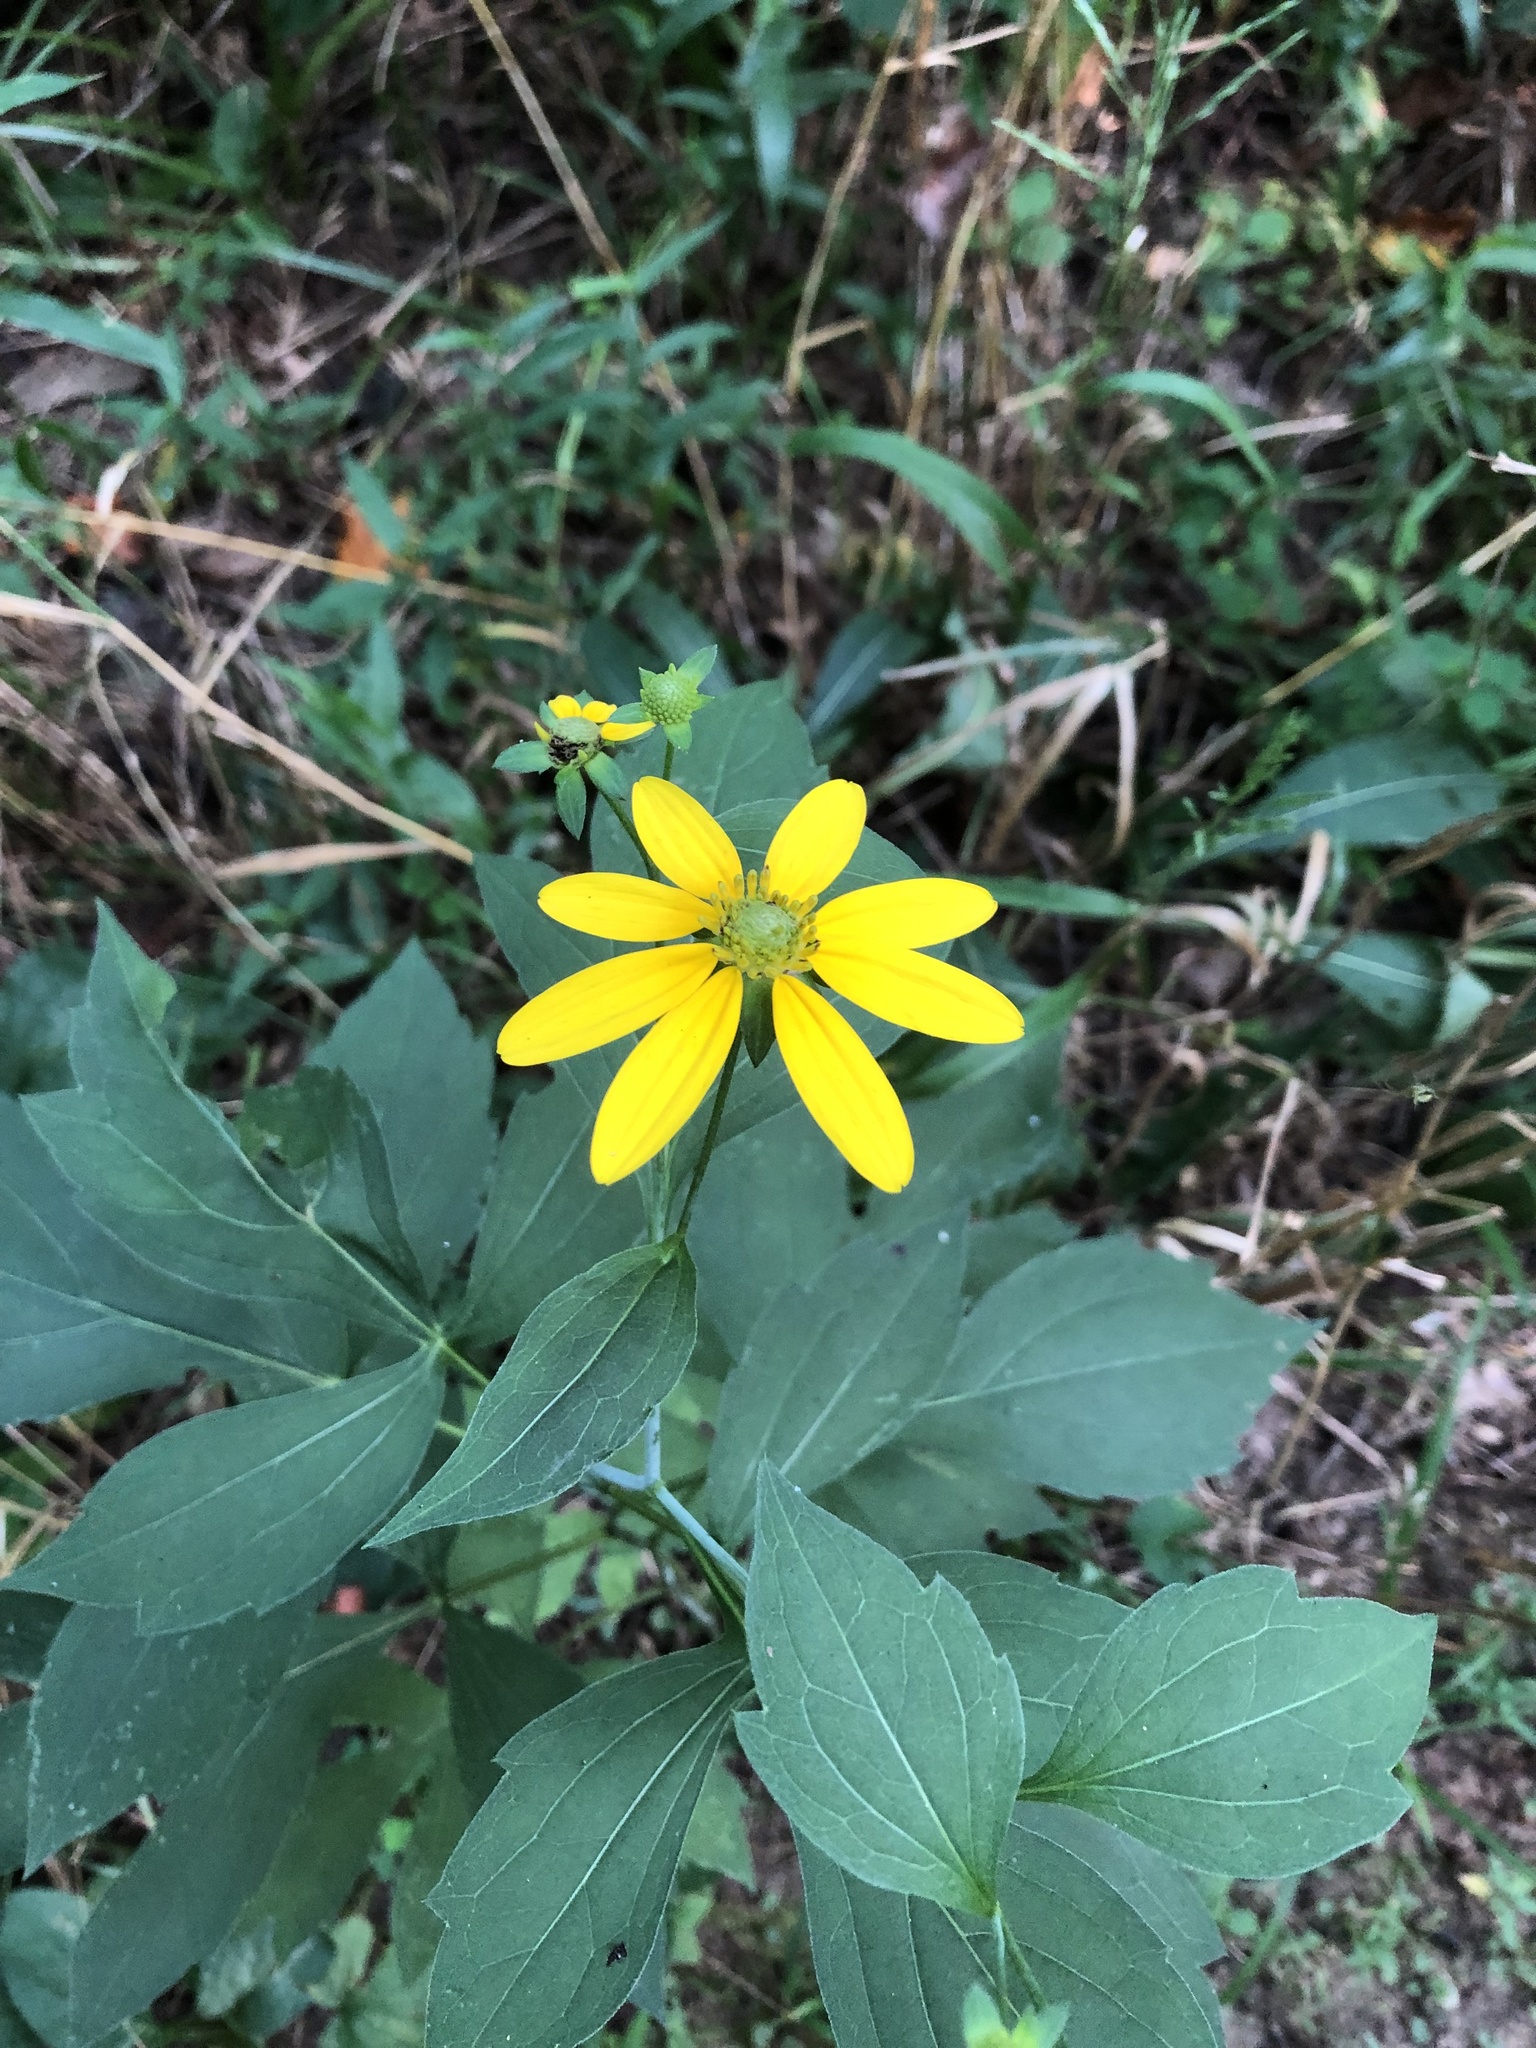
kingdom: Plantae
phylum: Tracheophyta
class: Magnoliopsida
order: Asterales
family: Asteraceae
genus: Rudbeckia
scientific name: Rudbeckia laciniata
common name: Coneflower
